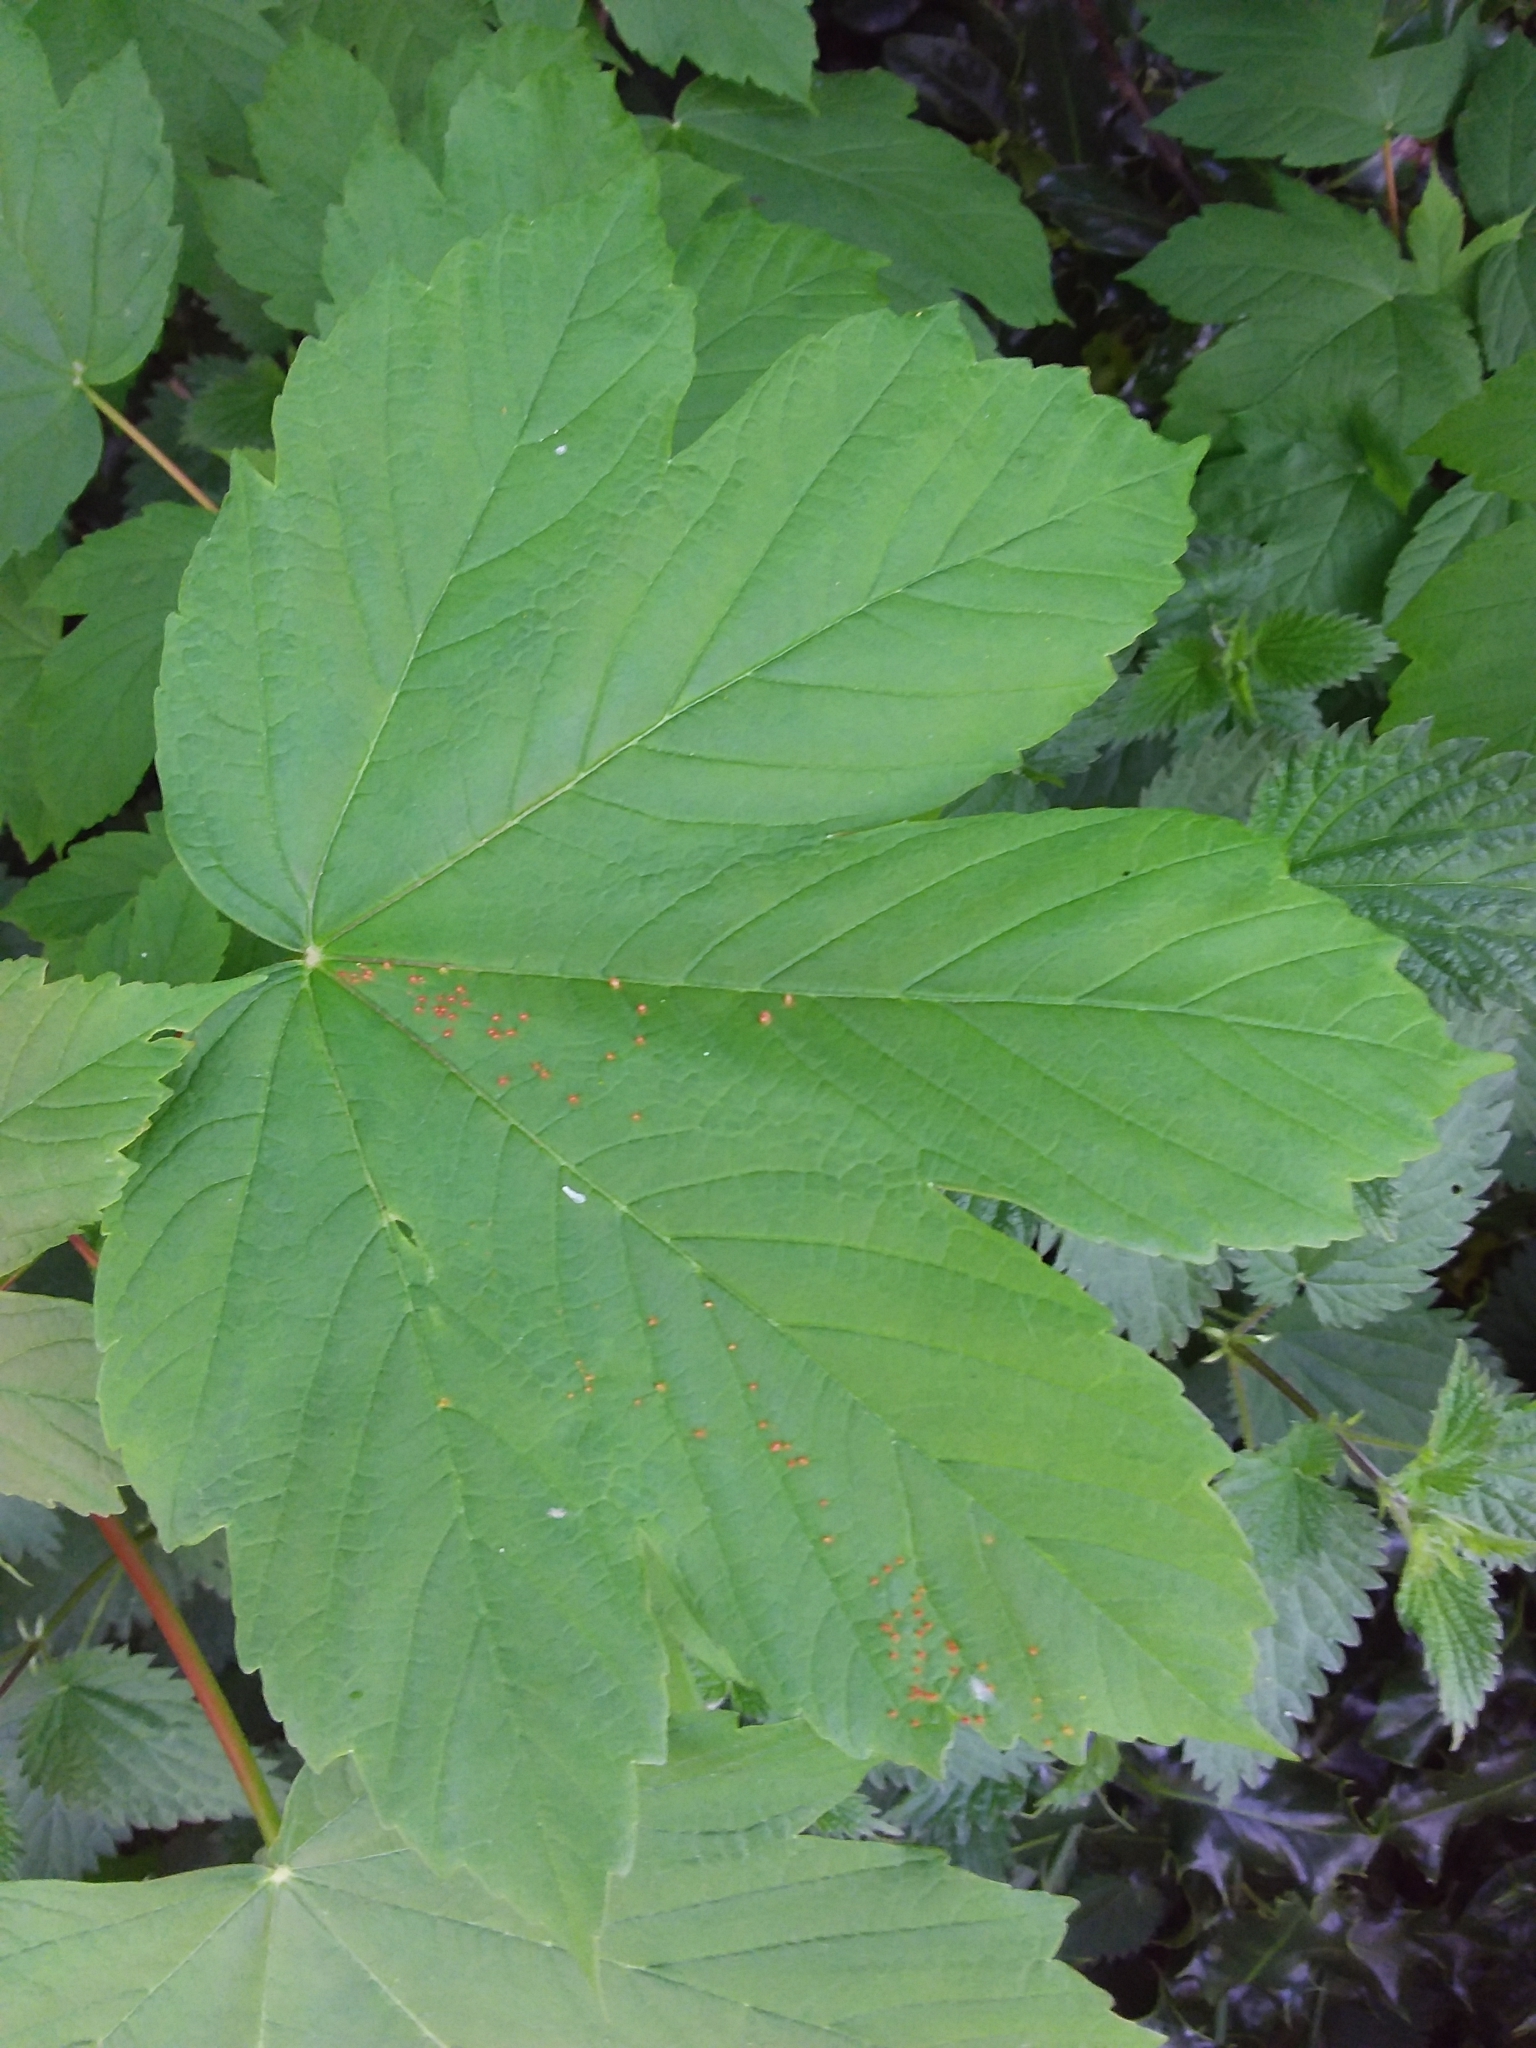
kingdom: Animalia
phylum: Arthropoda
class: Arachnida
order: Trombidiformes
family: Eriophyidae
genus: Aceria
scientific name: Aceria cephaloneus
